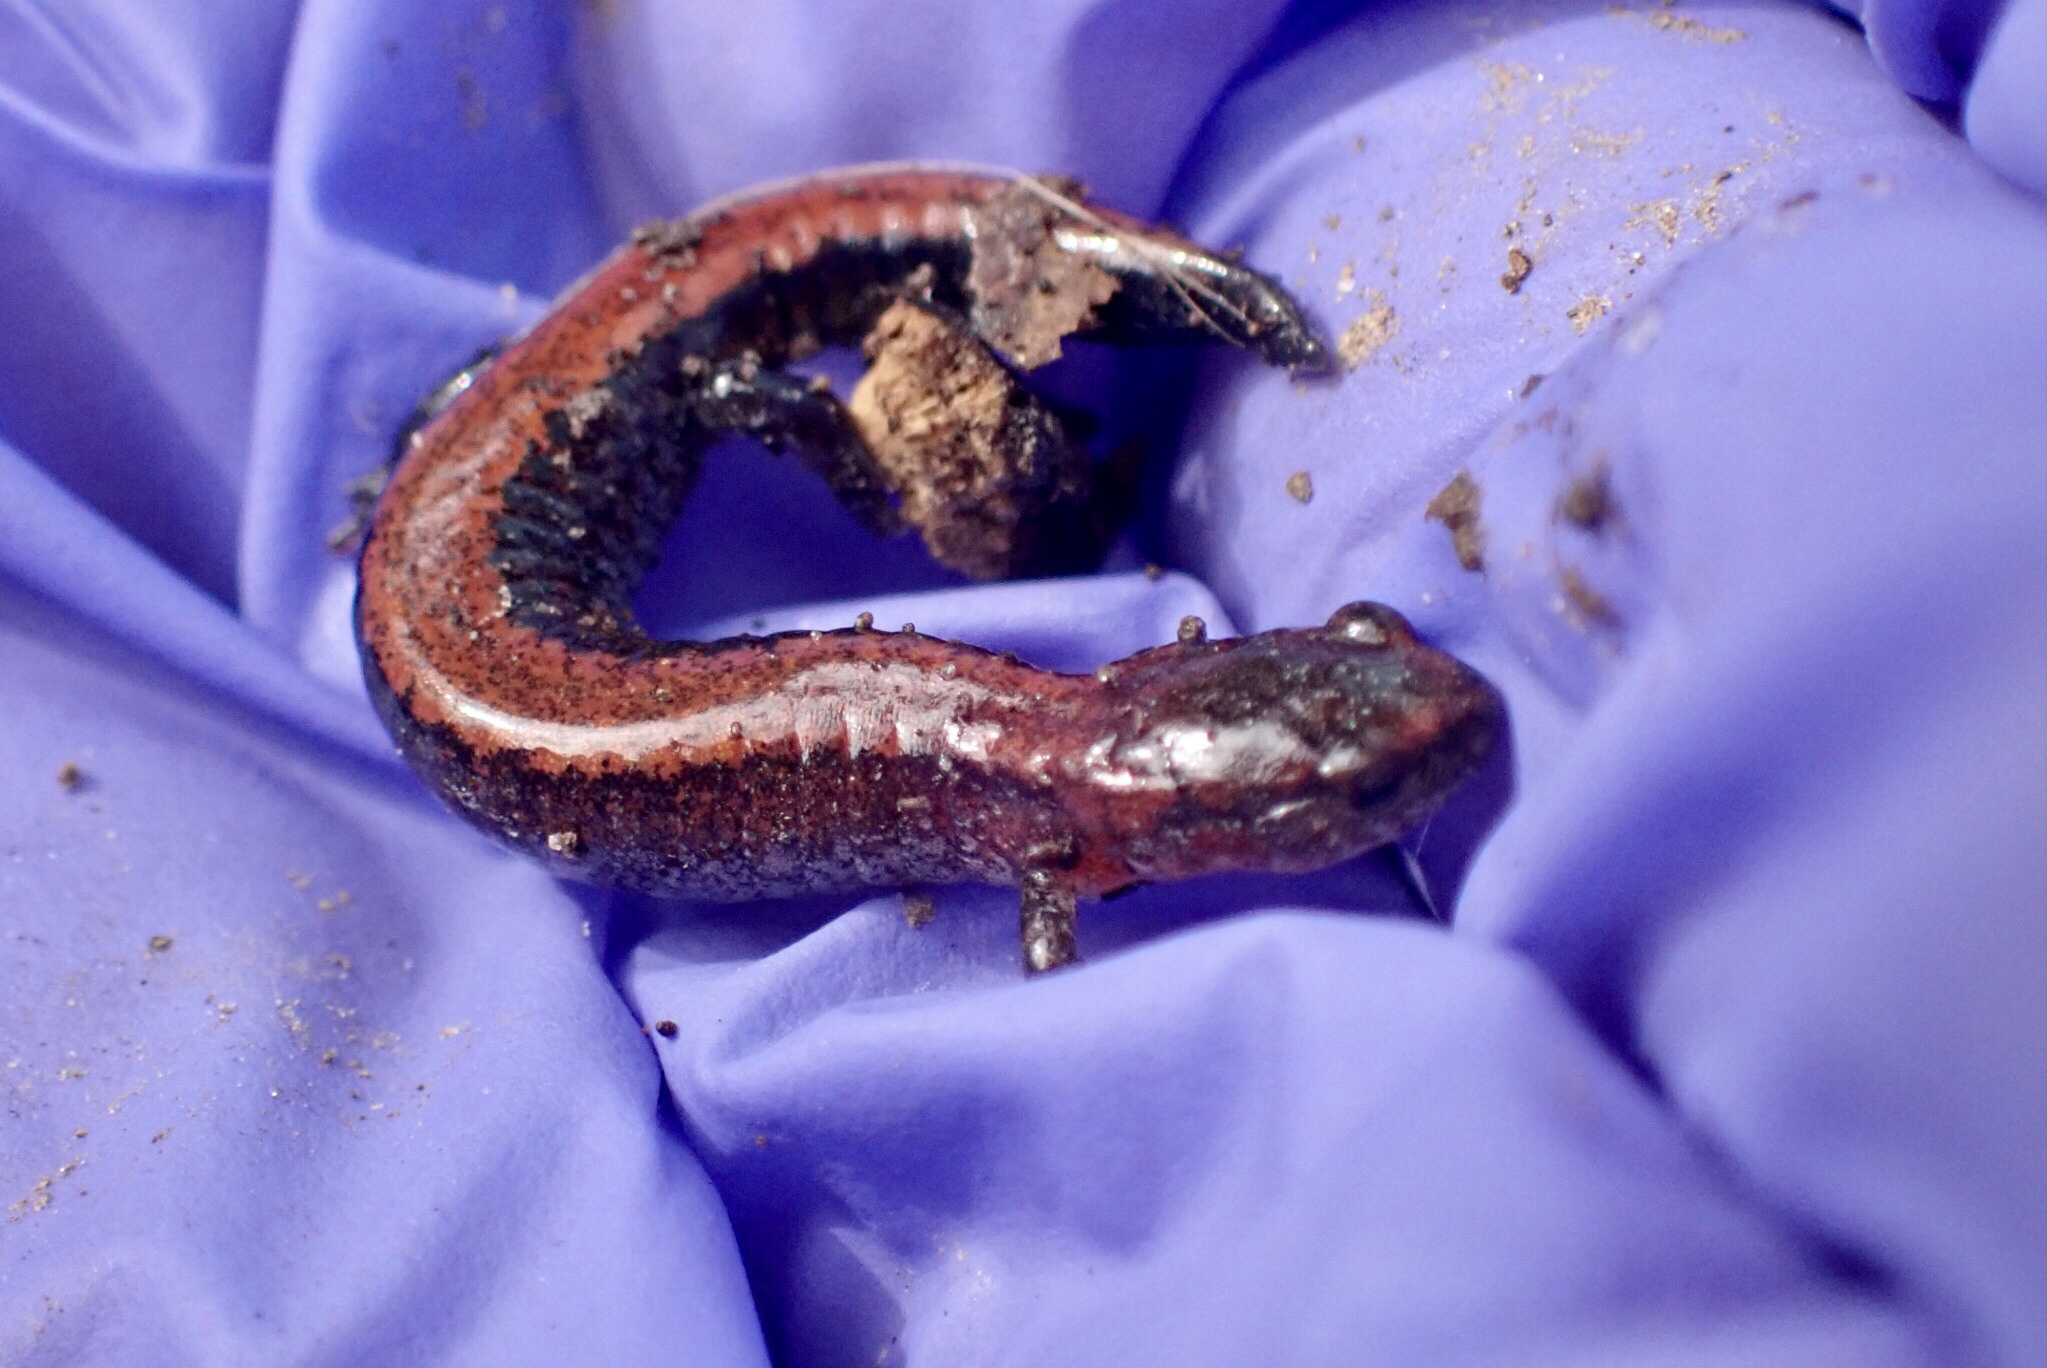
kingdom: Animalia
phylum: Chordata
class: Amphibia
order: Caudata
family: Plethodontidae
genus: Plethodon
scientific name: Plethodon cinereus
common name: Redback salamander
